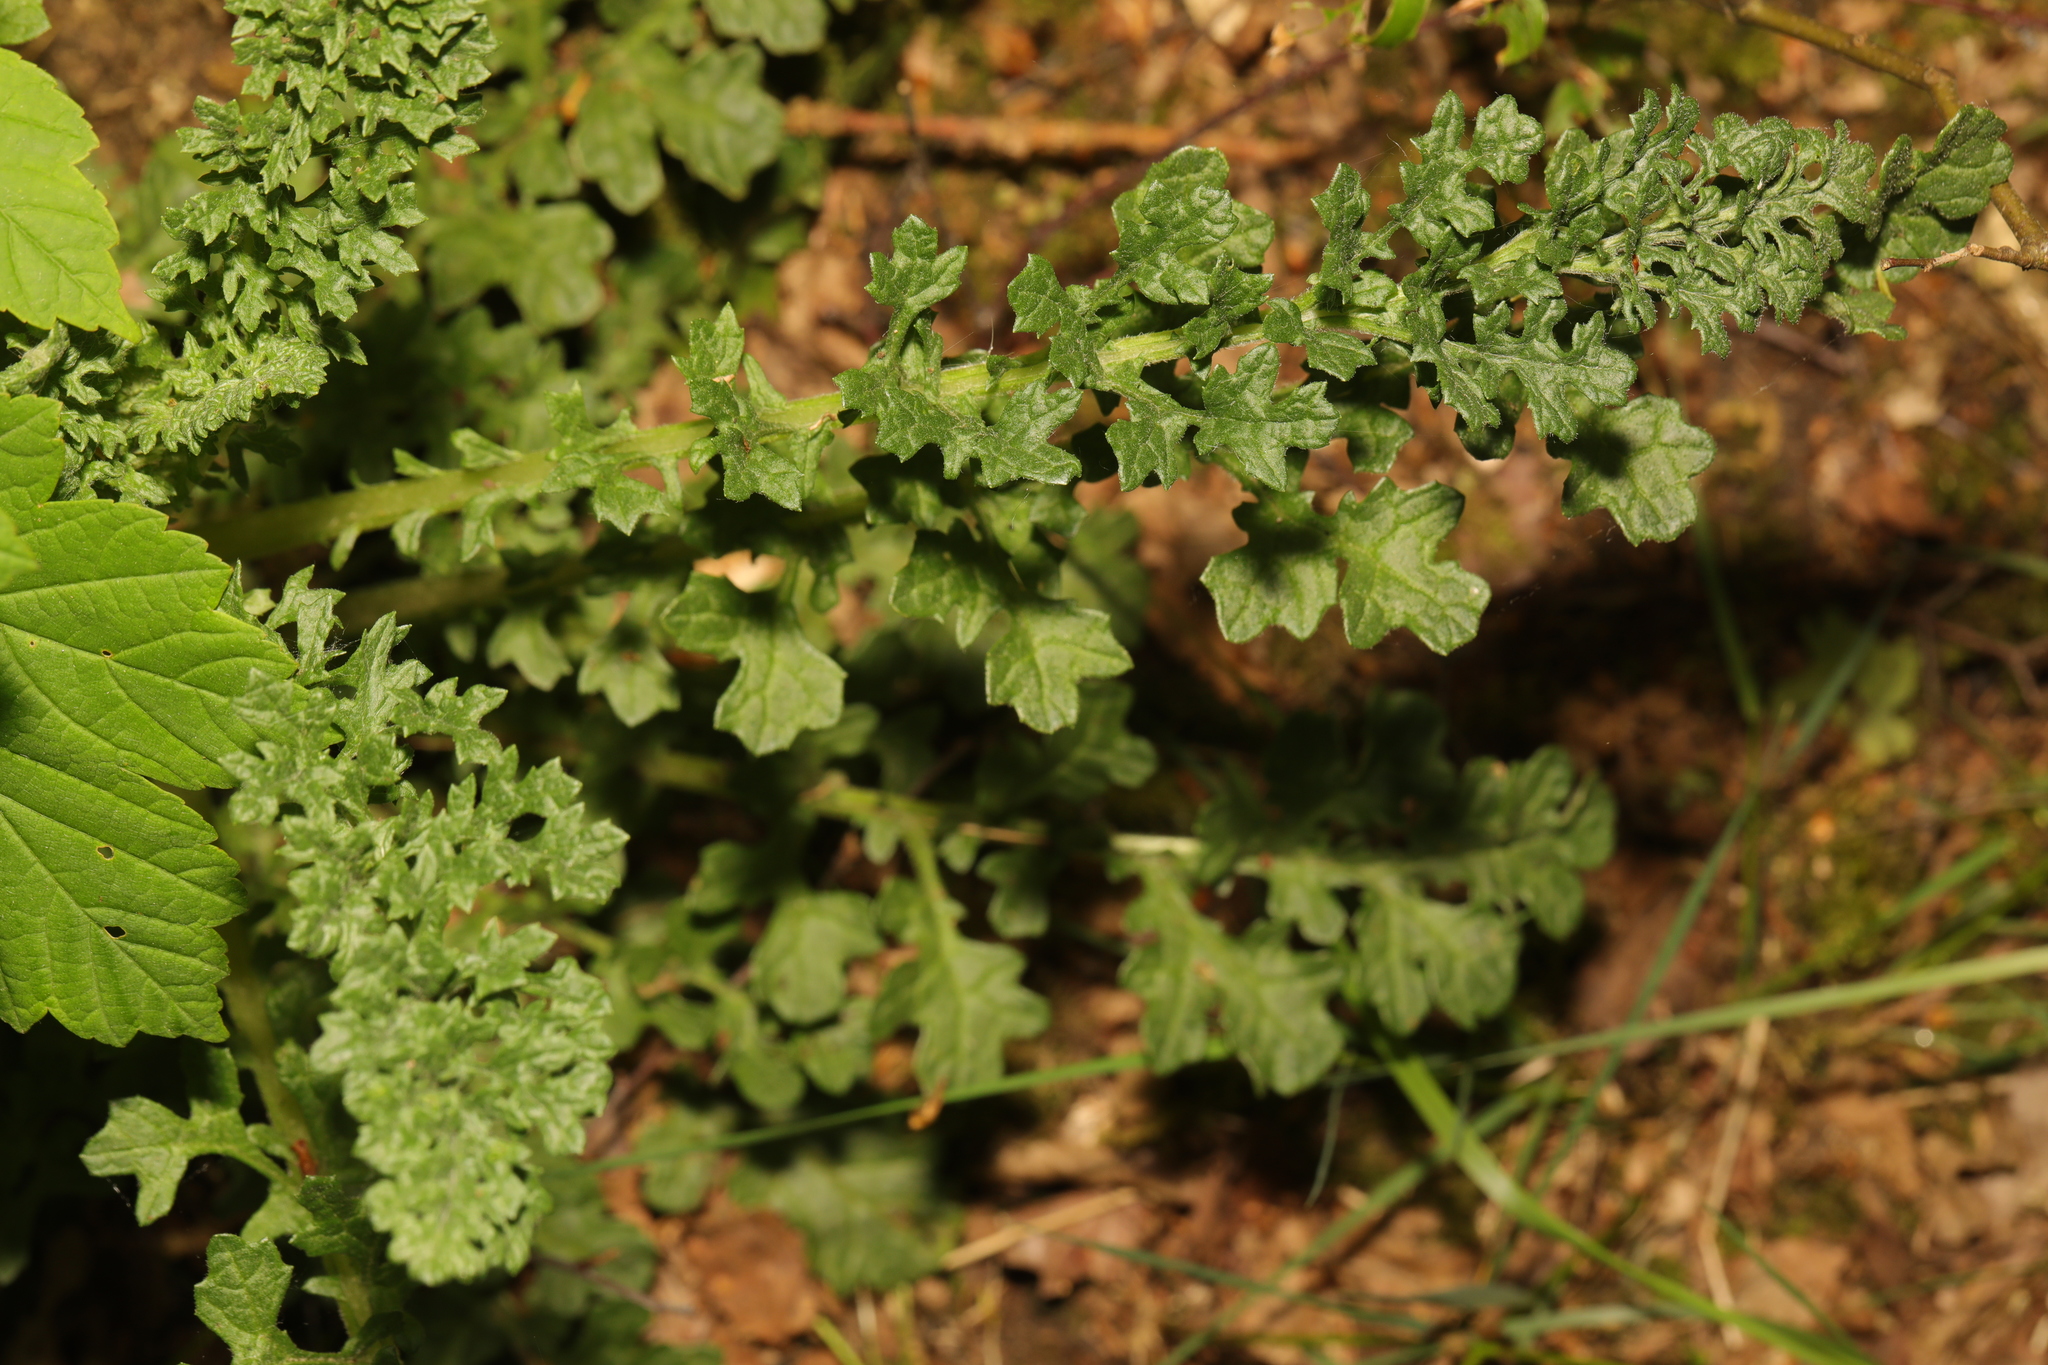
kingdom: Plantae
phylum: Tracheophyta
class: Magnoliopsida
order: Asterales
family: Asteraceae
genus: Jacobaea
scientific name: Jacobaea vulgaris
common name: Stinking willie
